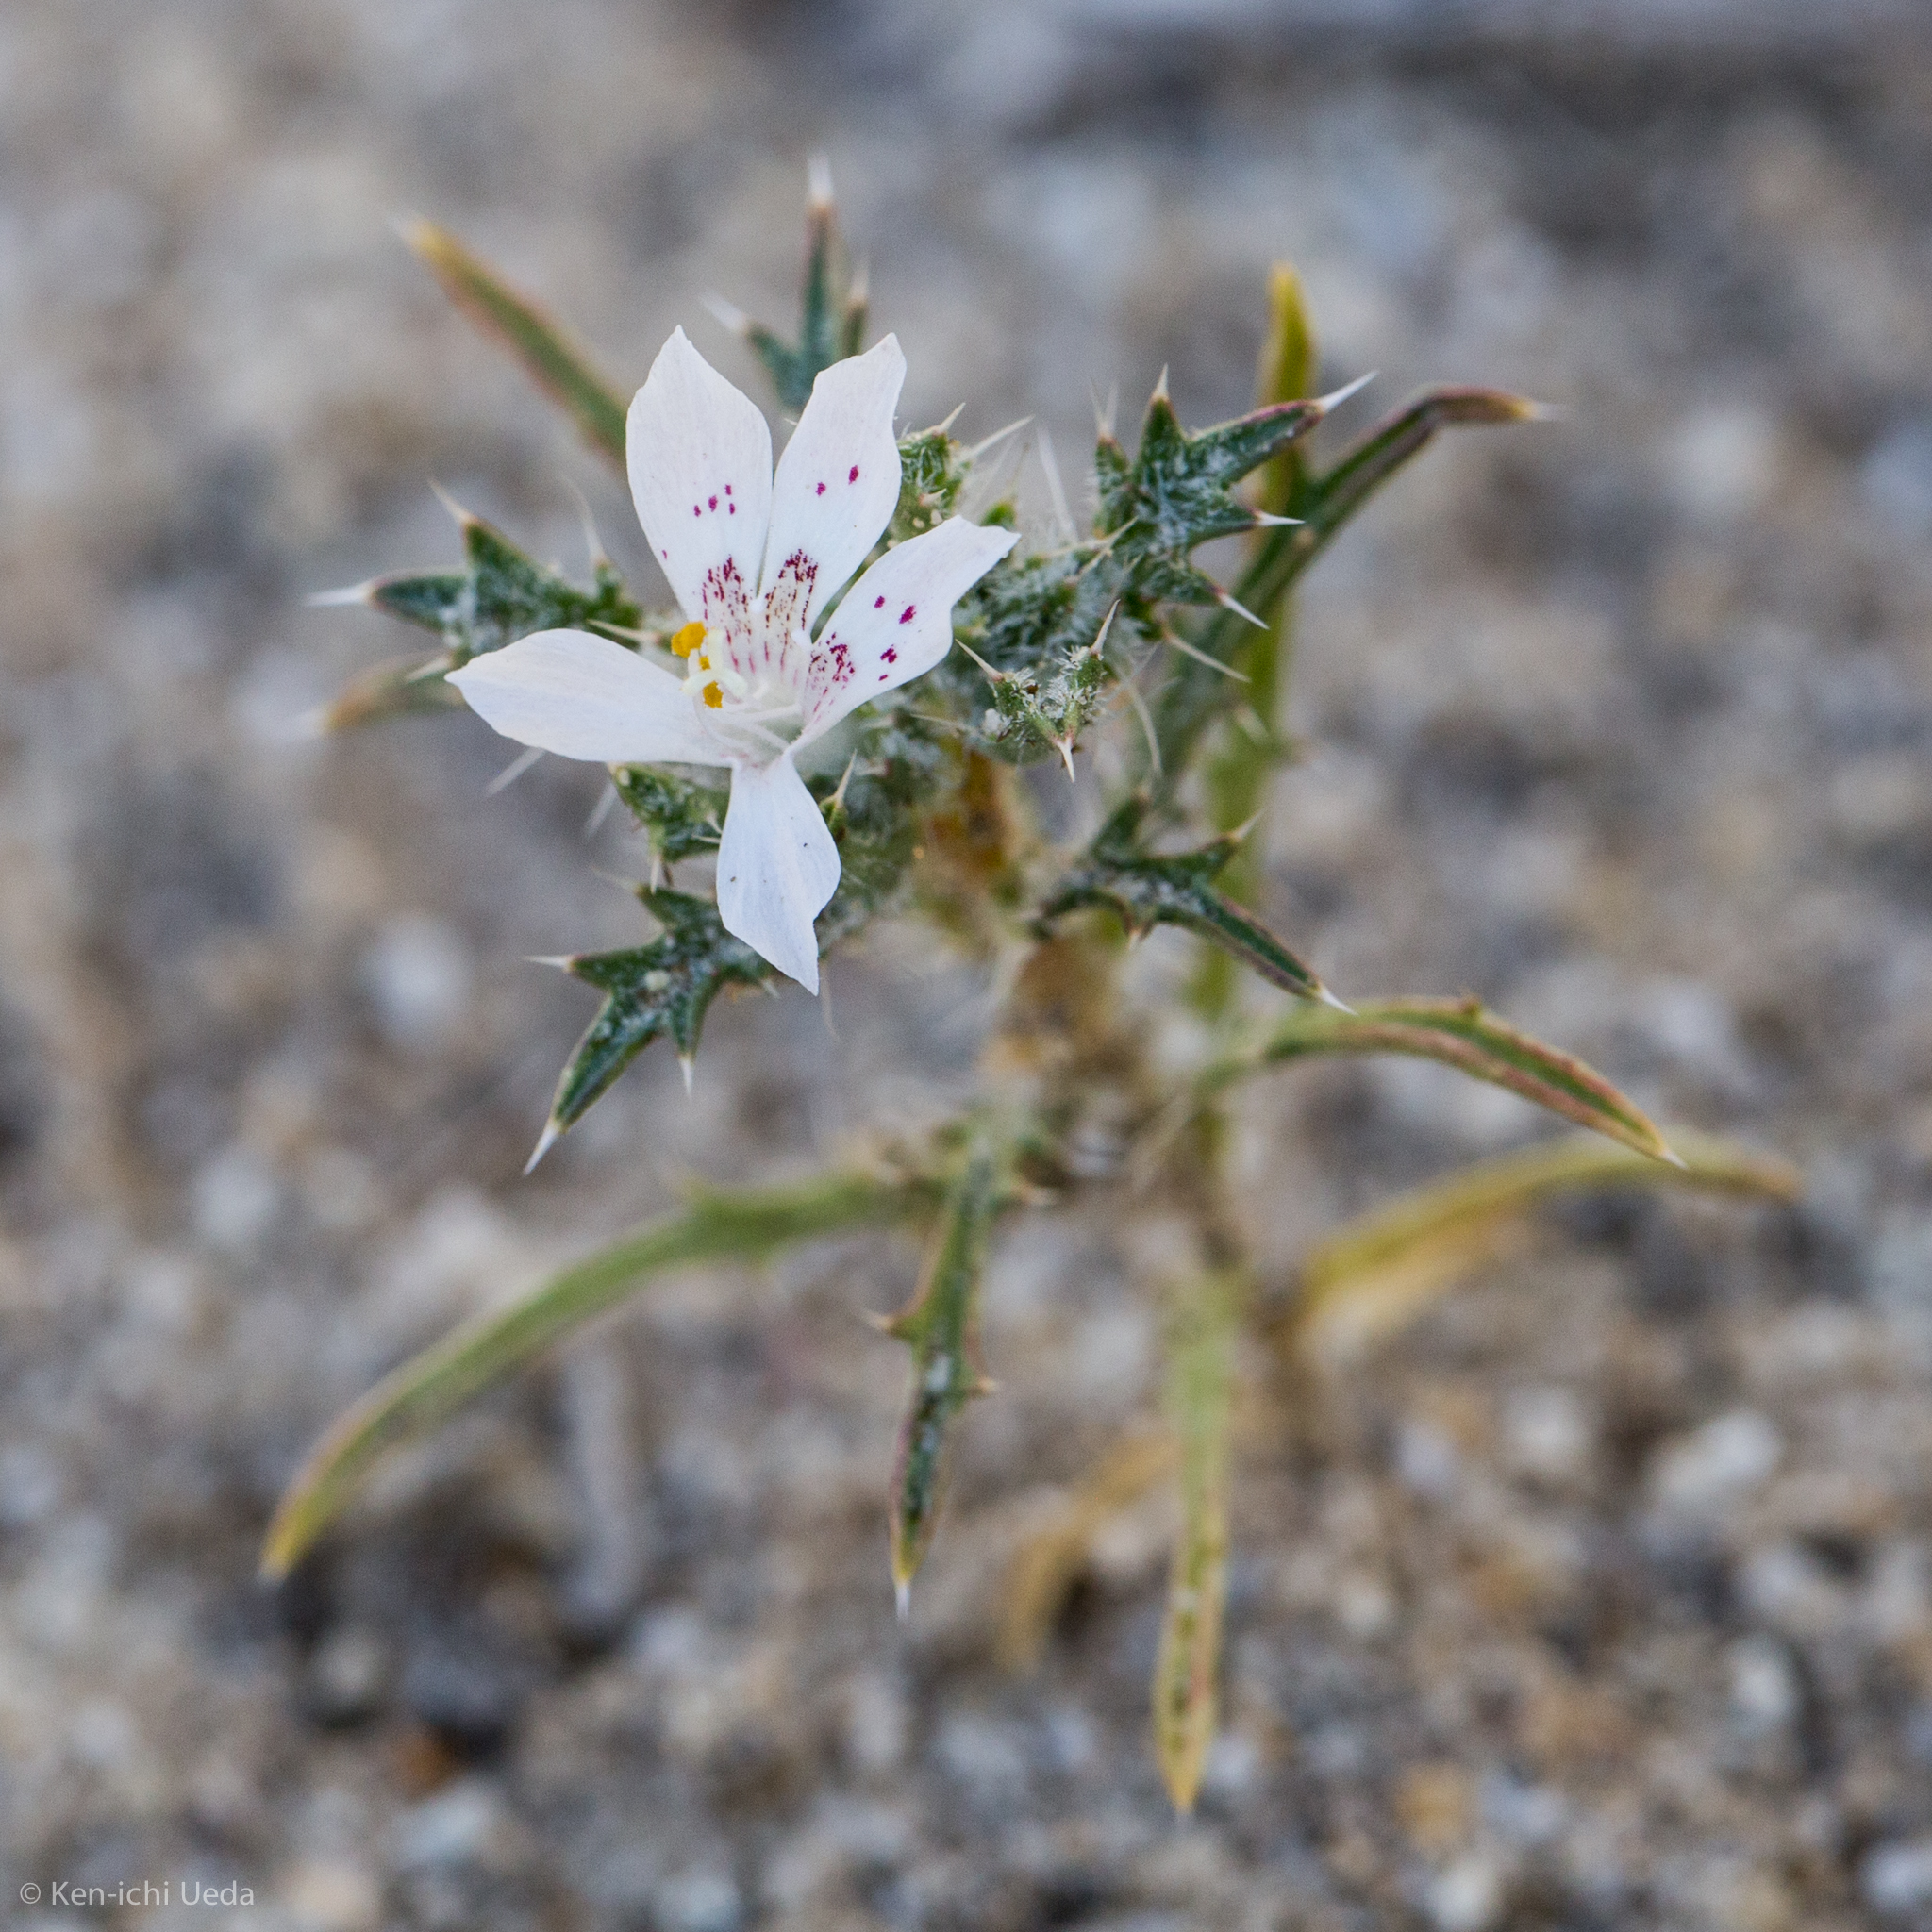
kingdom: Plantae
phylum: Tracheophyta
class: Magnoliopsida
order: Ericales
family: Polemoniaceae
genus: Loeseliastrum
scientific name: Loeseliastrum matthewsii
